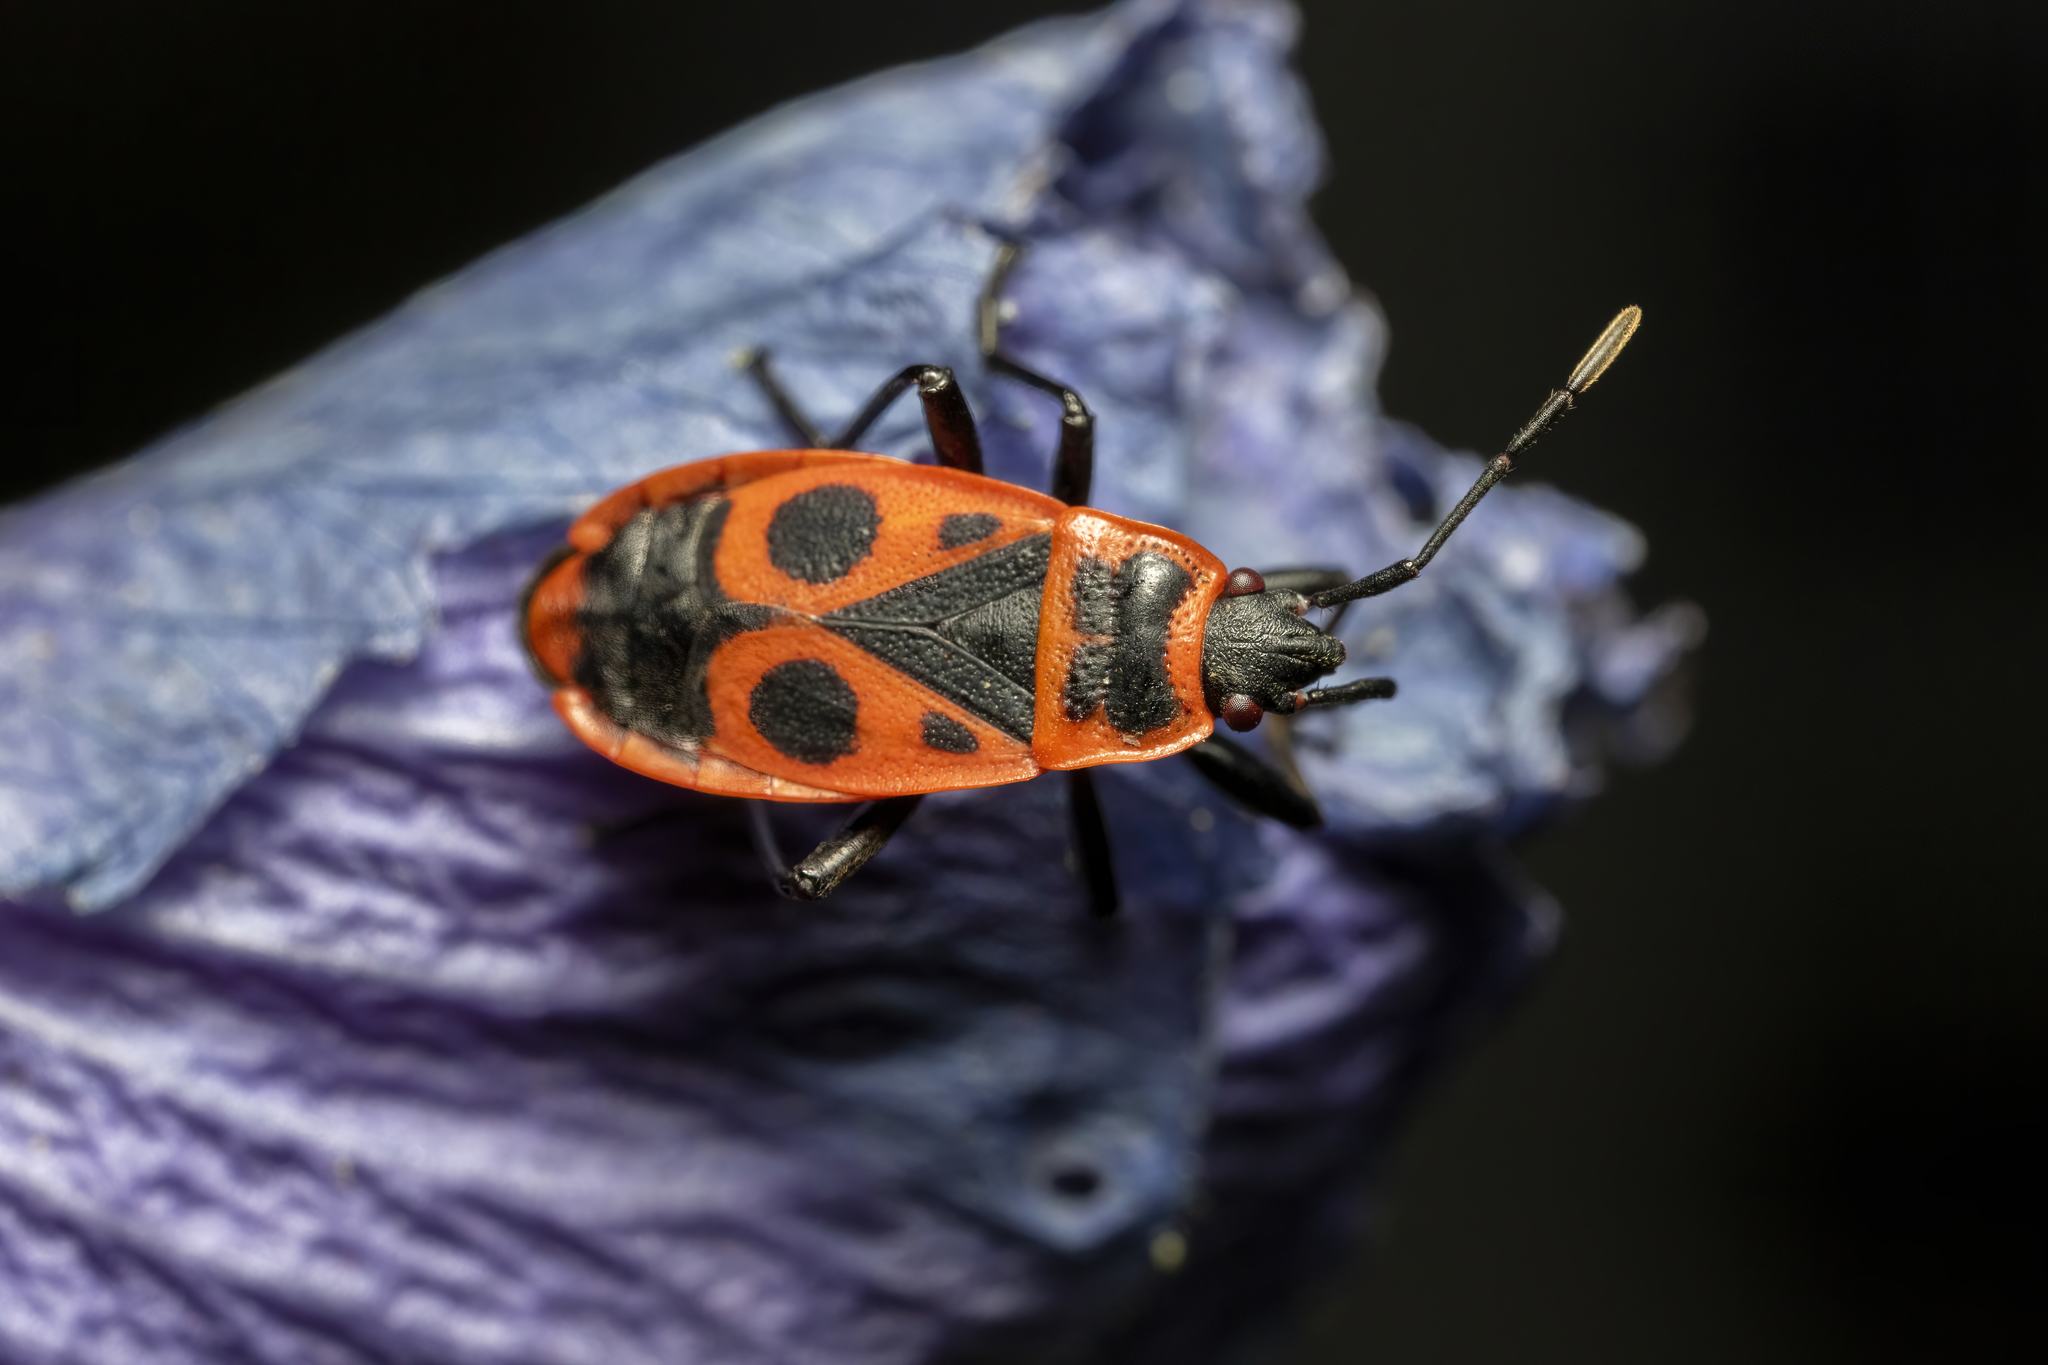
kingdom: Animalia
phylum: Arthropoda
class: Insecta
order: Hemiptera
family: Pyrrhocoridae
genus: Pyrrhocoris
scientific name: Pyrrhocoris apterus
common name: Firebug
